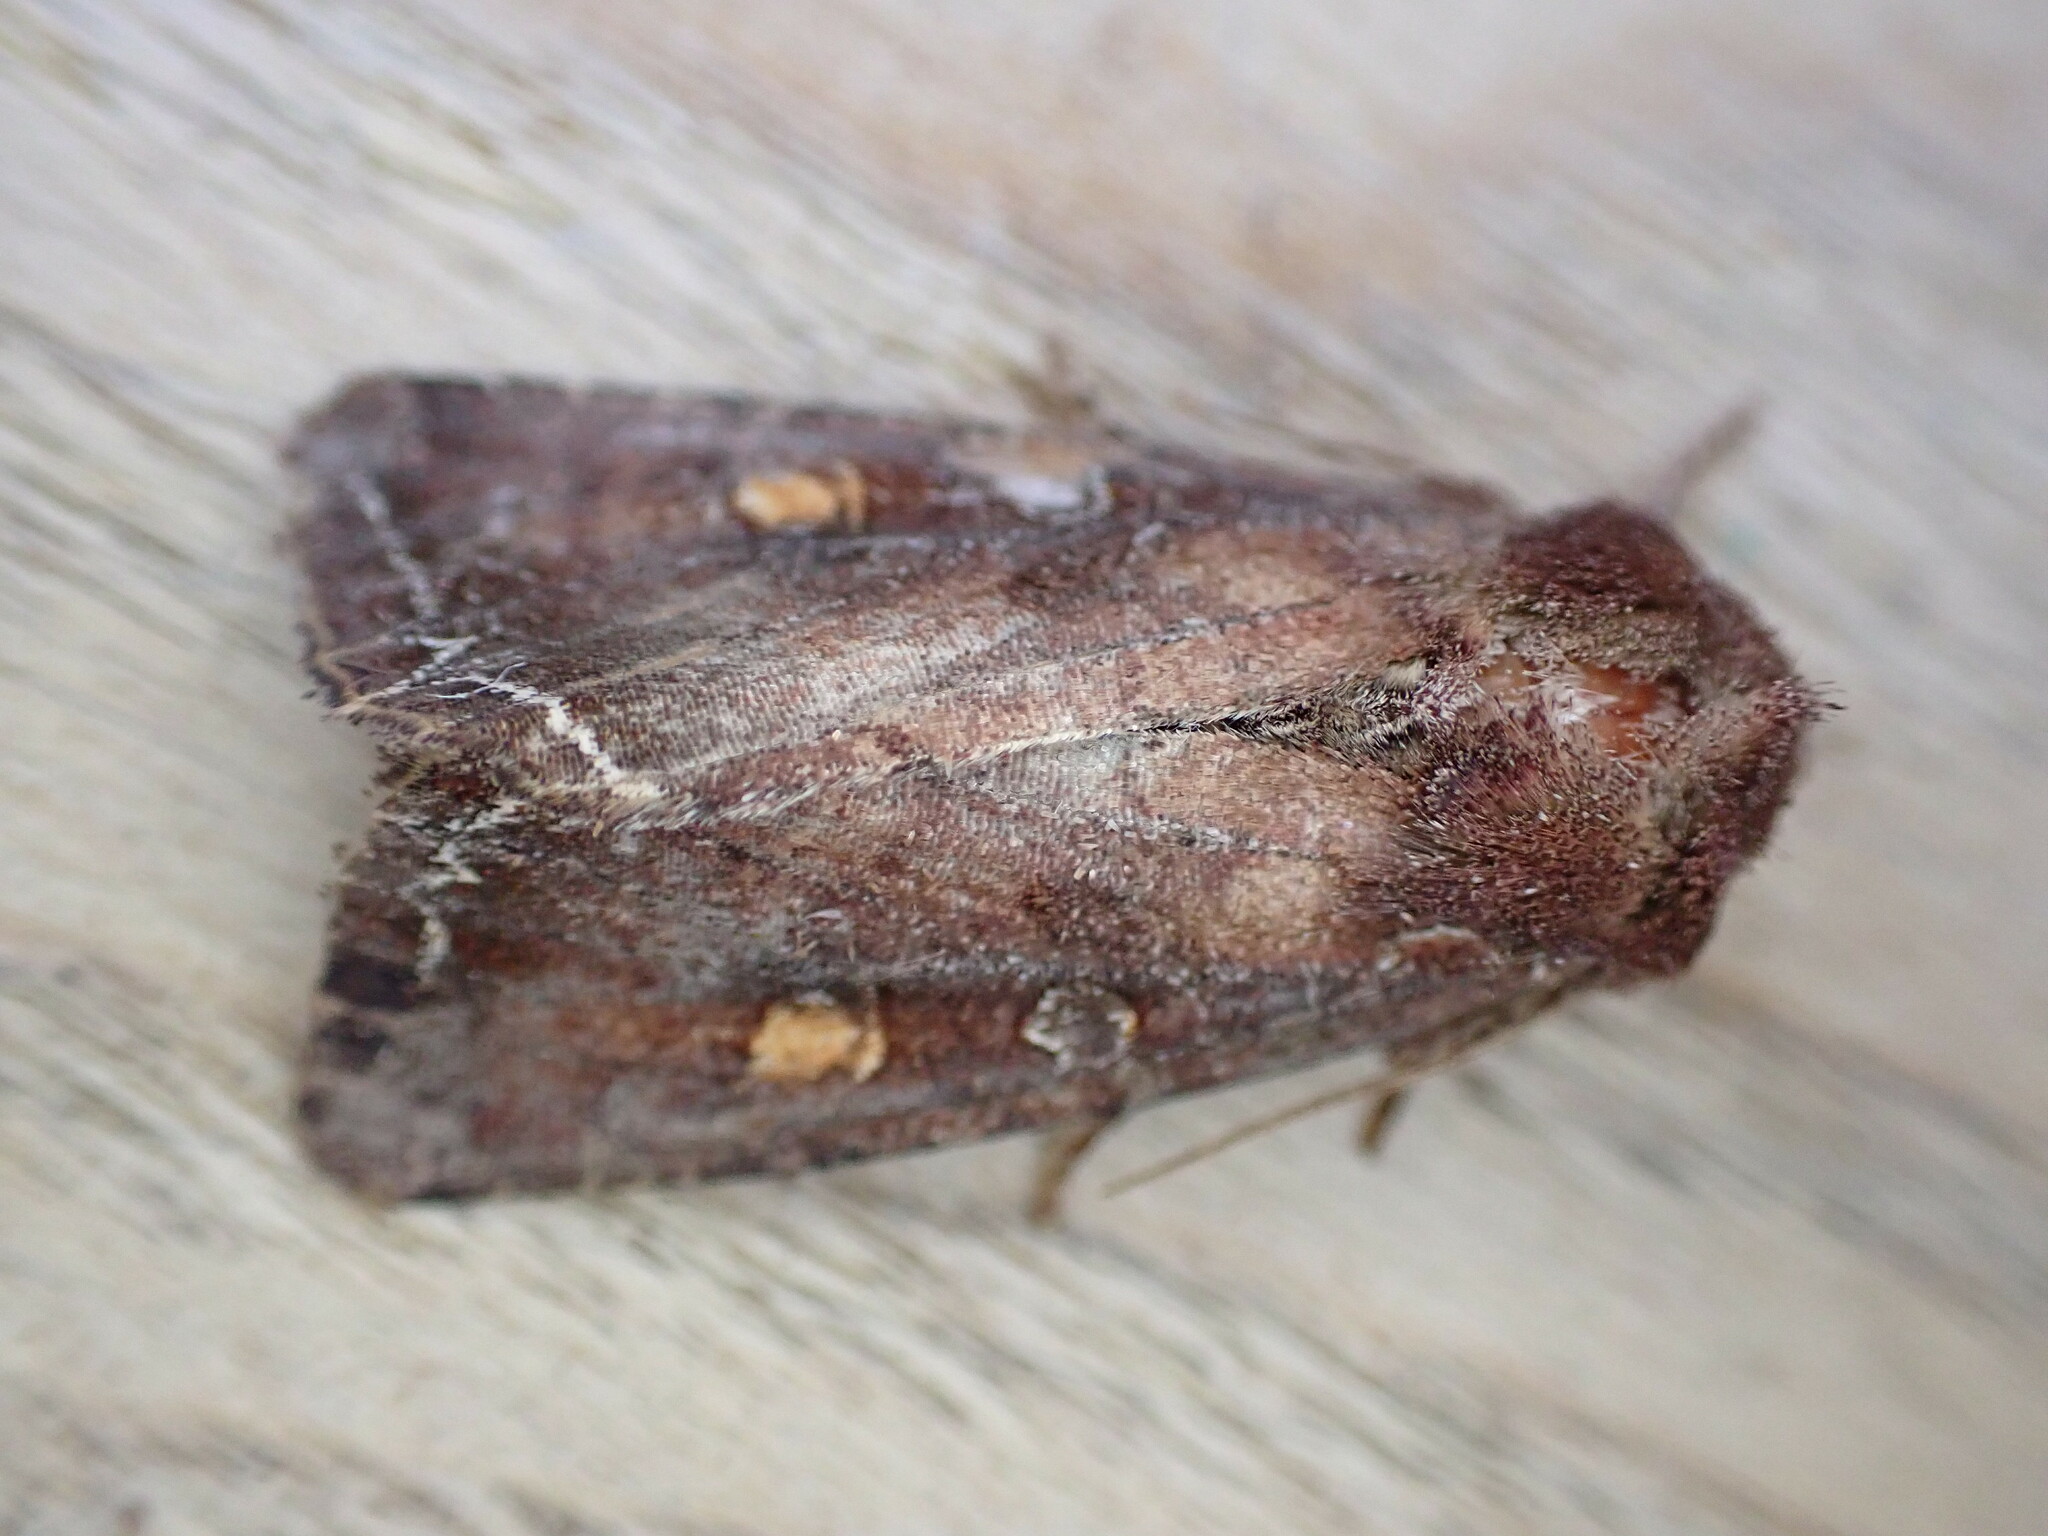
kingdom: Animalia
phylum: Arthropoda
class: Insecta
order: Lepidoptera
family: Noctuidae
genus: Lacanobia
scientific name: Lacanobia oleracea
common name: Bright-line brown-eye
